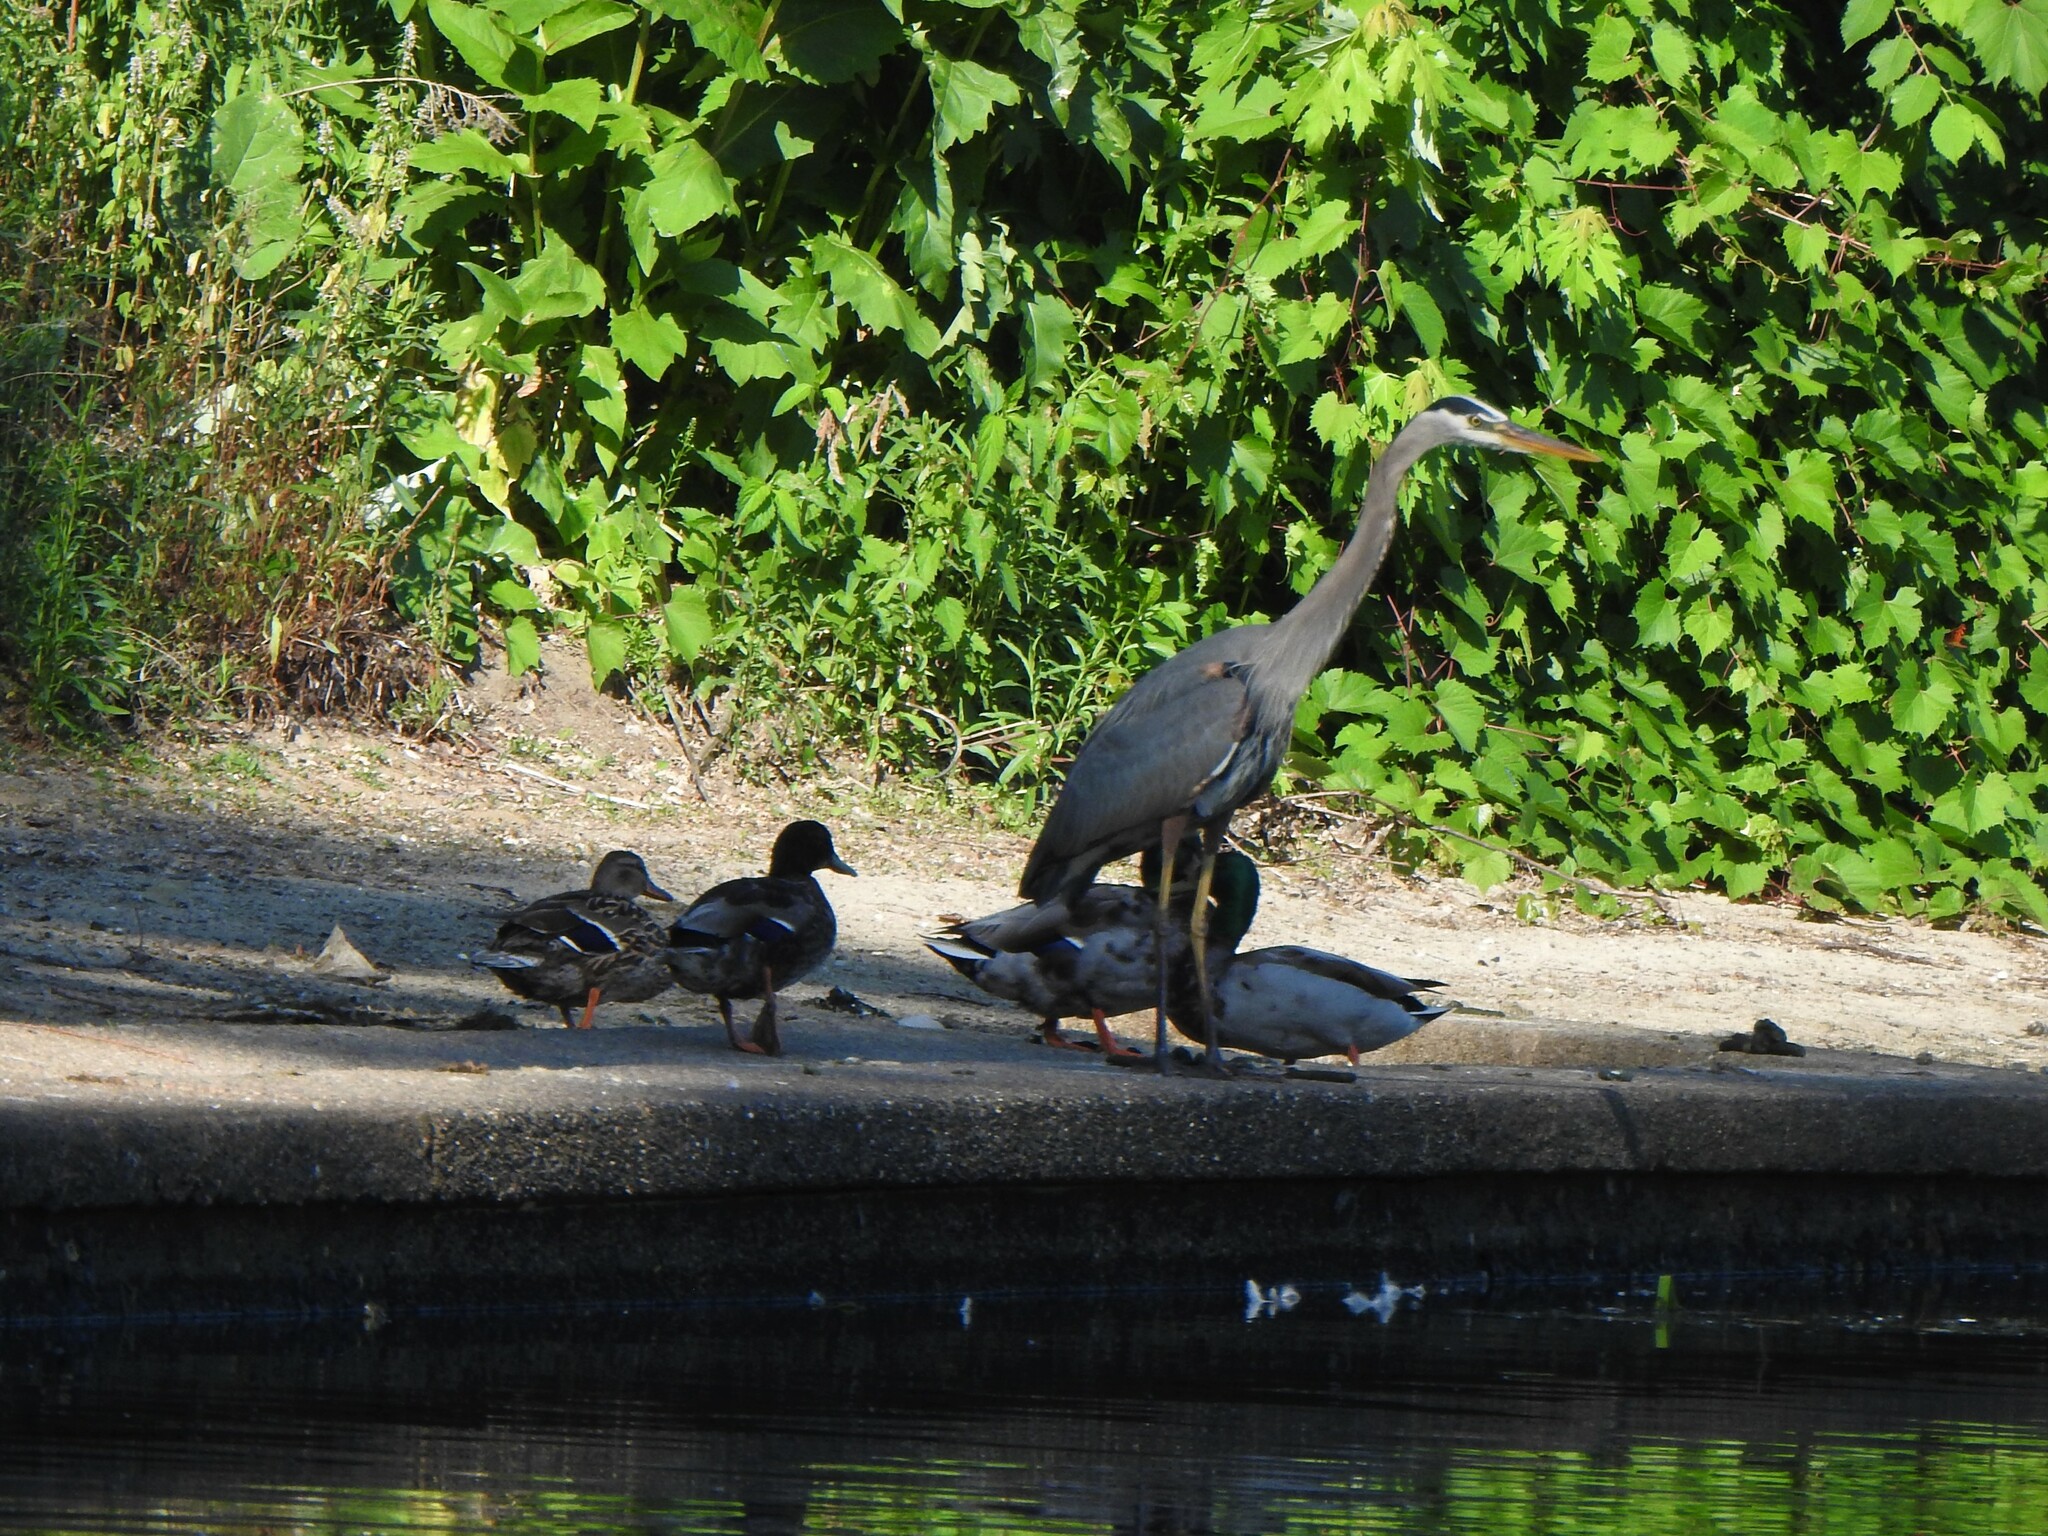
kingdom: Animalia
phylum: Chordata
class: Aves
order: Pelecaniformes
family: Ardeidae
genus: Ardea
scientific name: Ardea herodias
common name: Great blue heron
